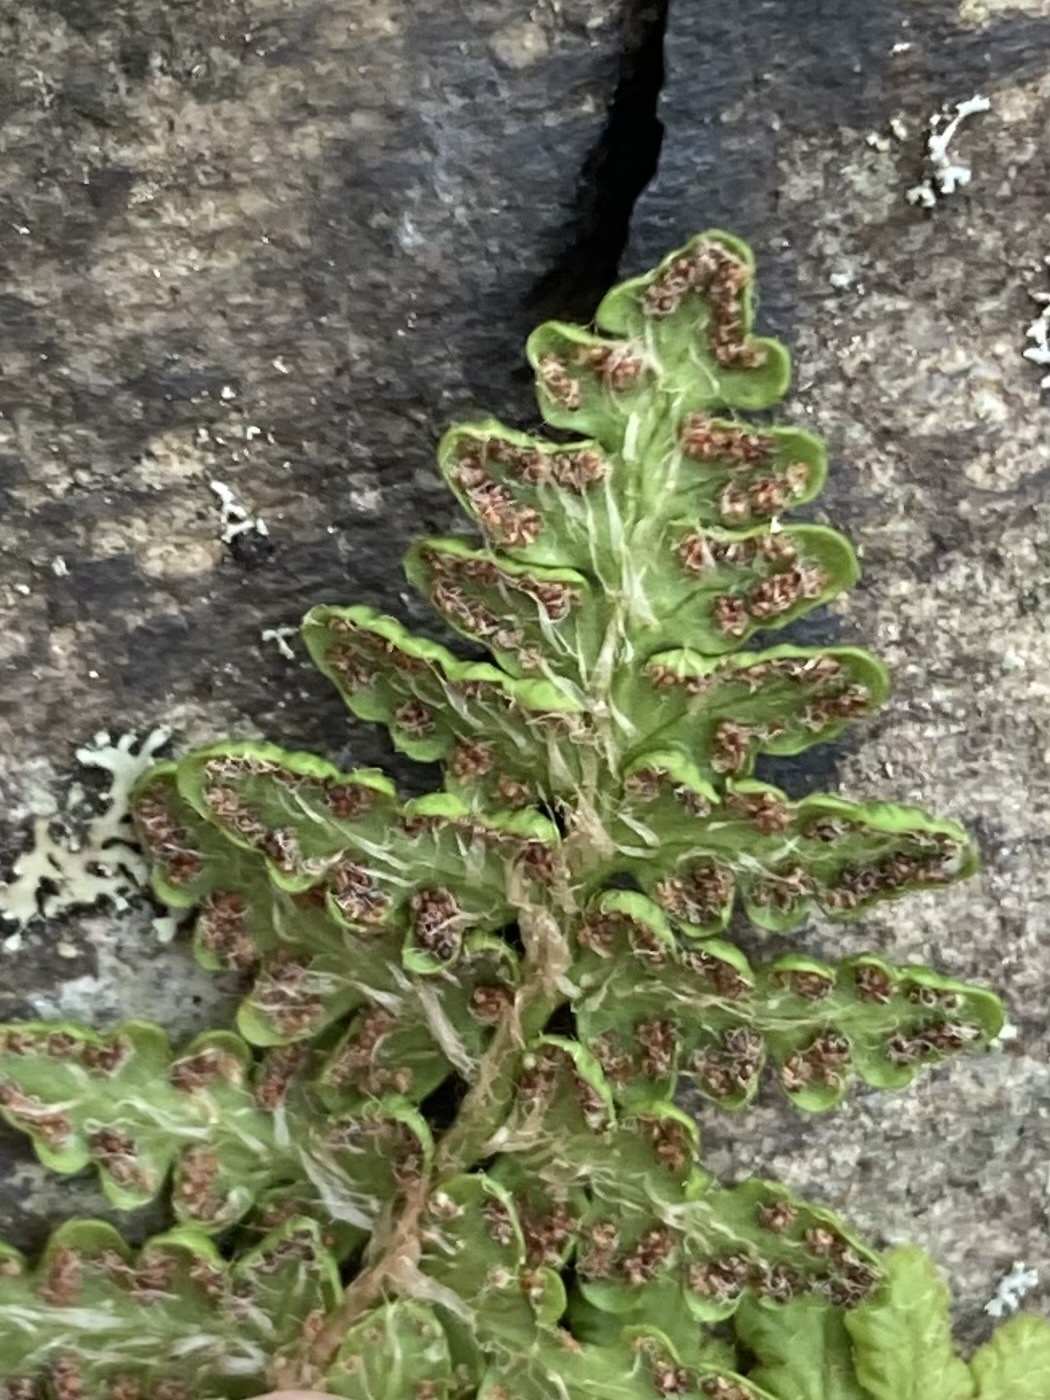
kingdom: Plantae
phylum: Tracheophyta
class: Polypodiopsida
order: Polypodiales
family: Woodsiaceae
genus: Woodsia
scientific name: Woodsia ilvensis
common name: Fragrant woodsia
